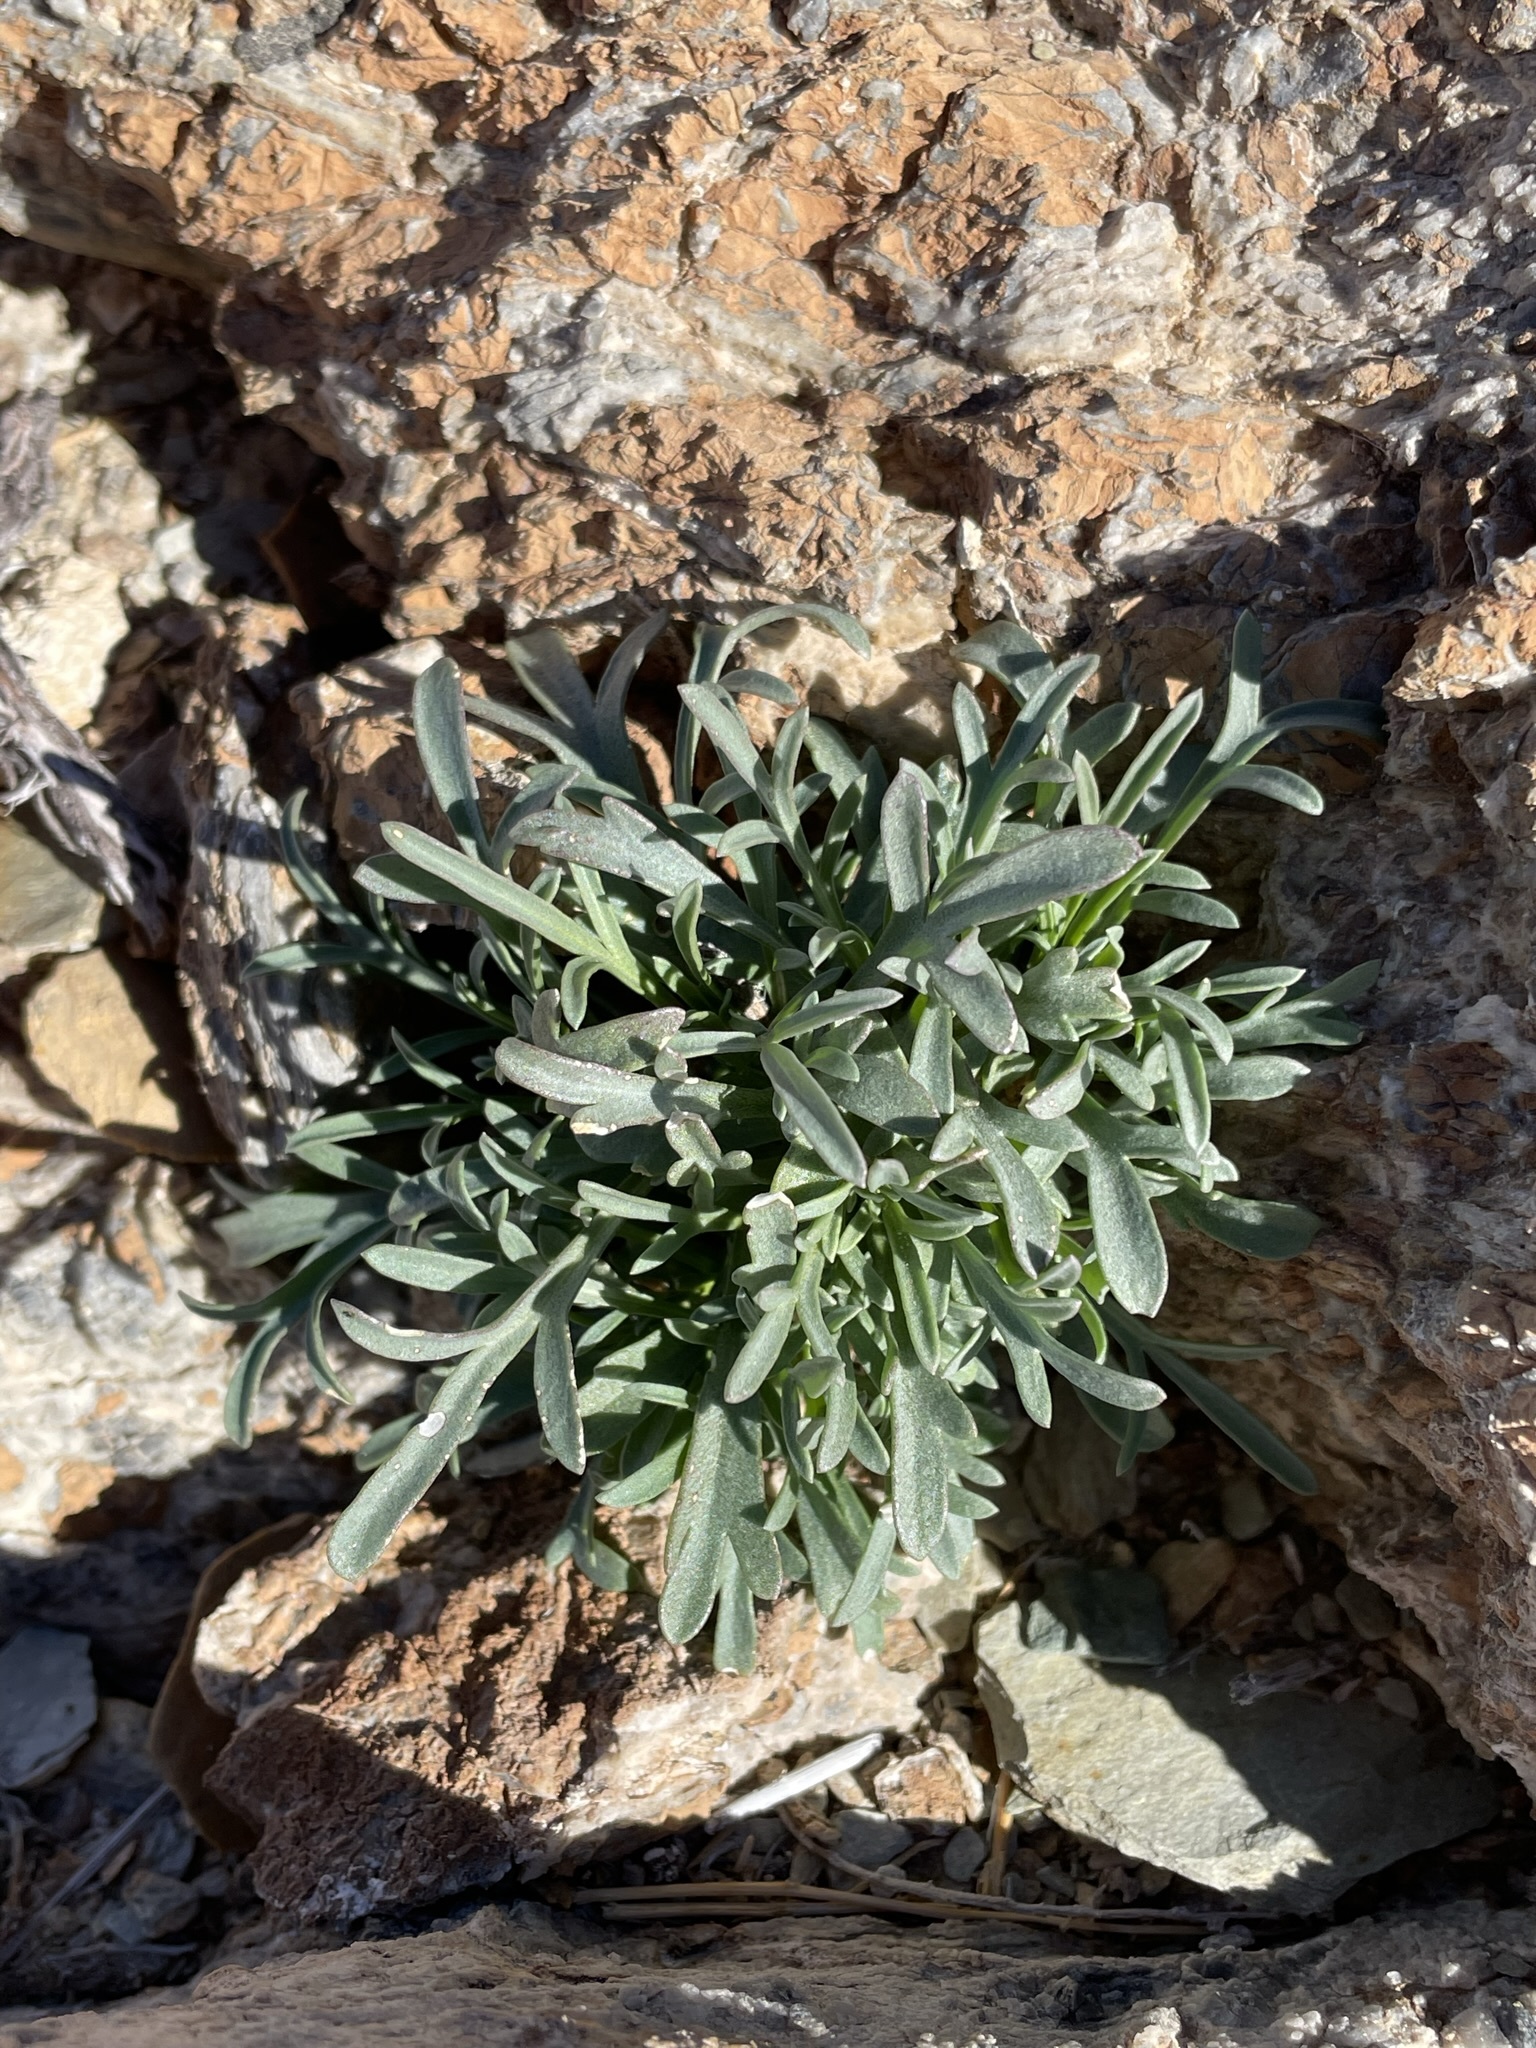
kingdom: Plantae
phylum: Tracheophyta
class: Magnoliopsida
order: Brassicales
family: Brassicaceae
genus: Lepidium
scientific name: Lepidium fremontii
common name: Fremont's pepperwort
